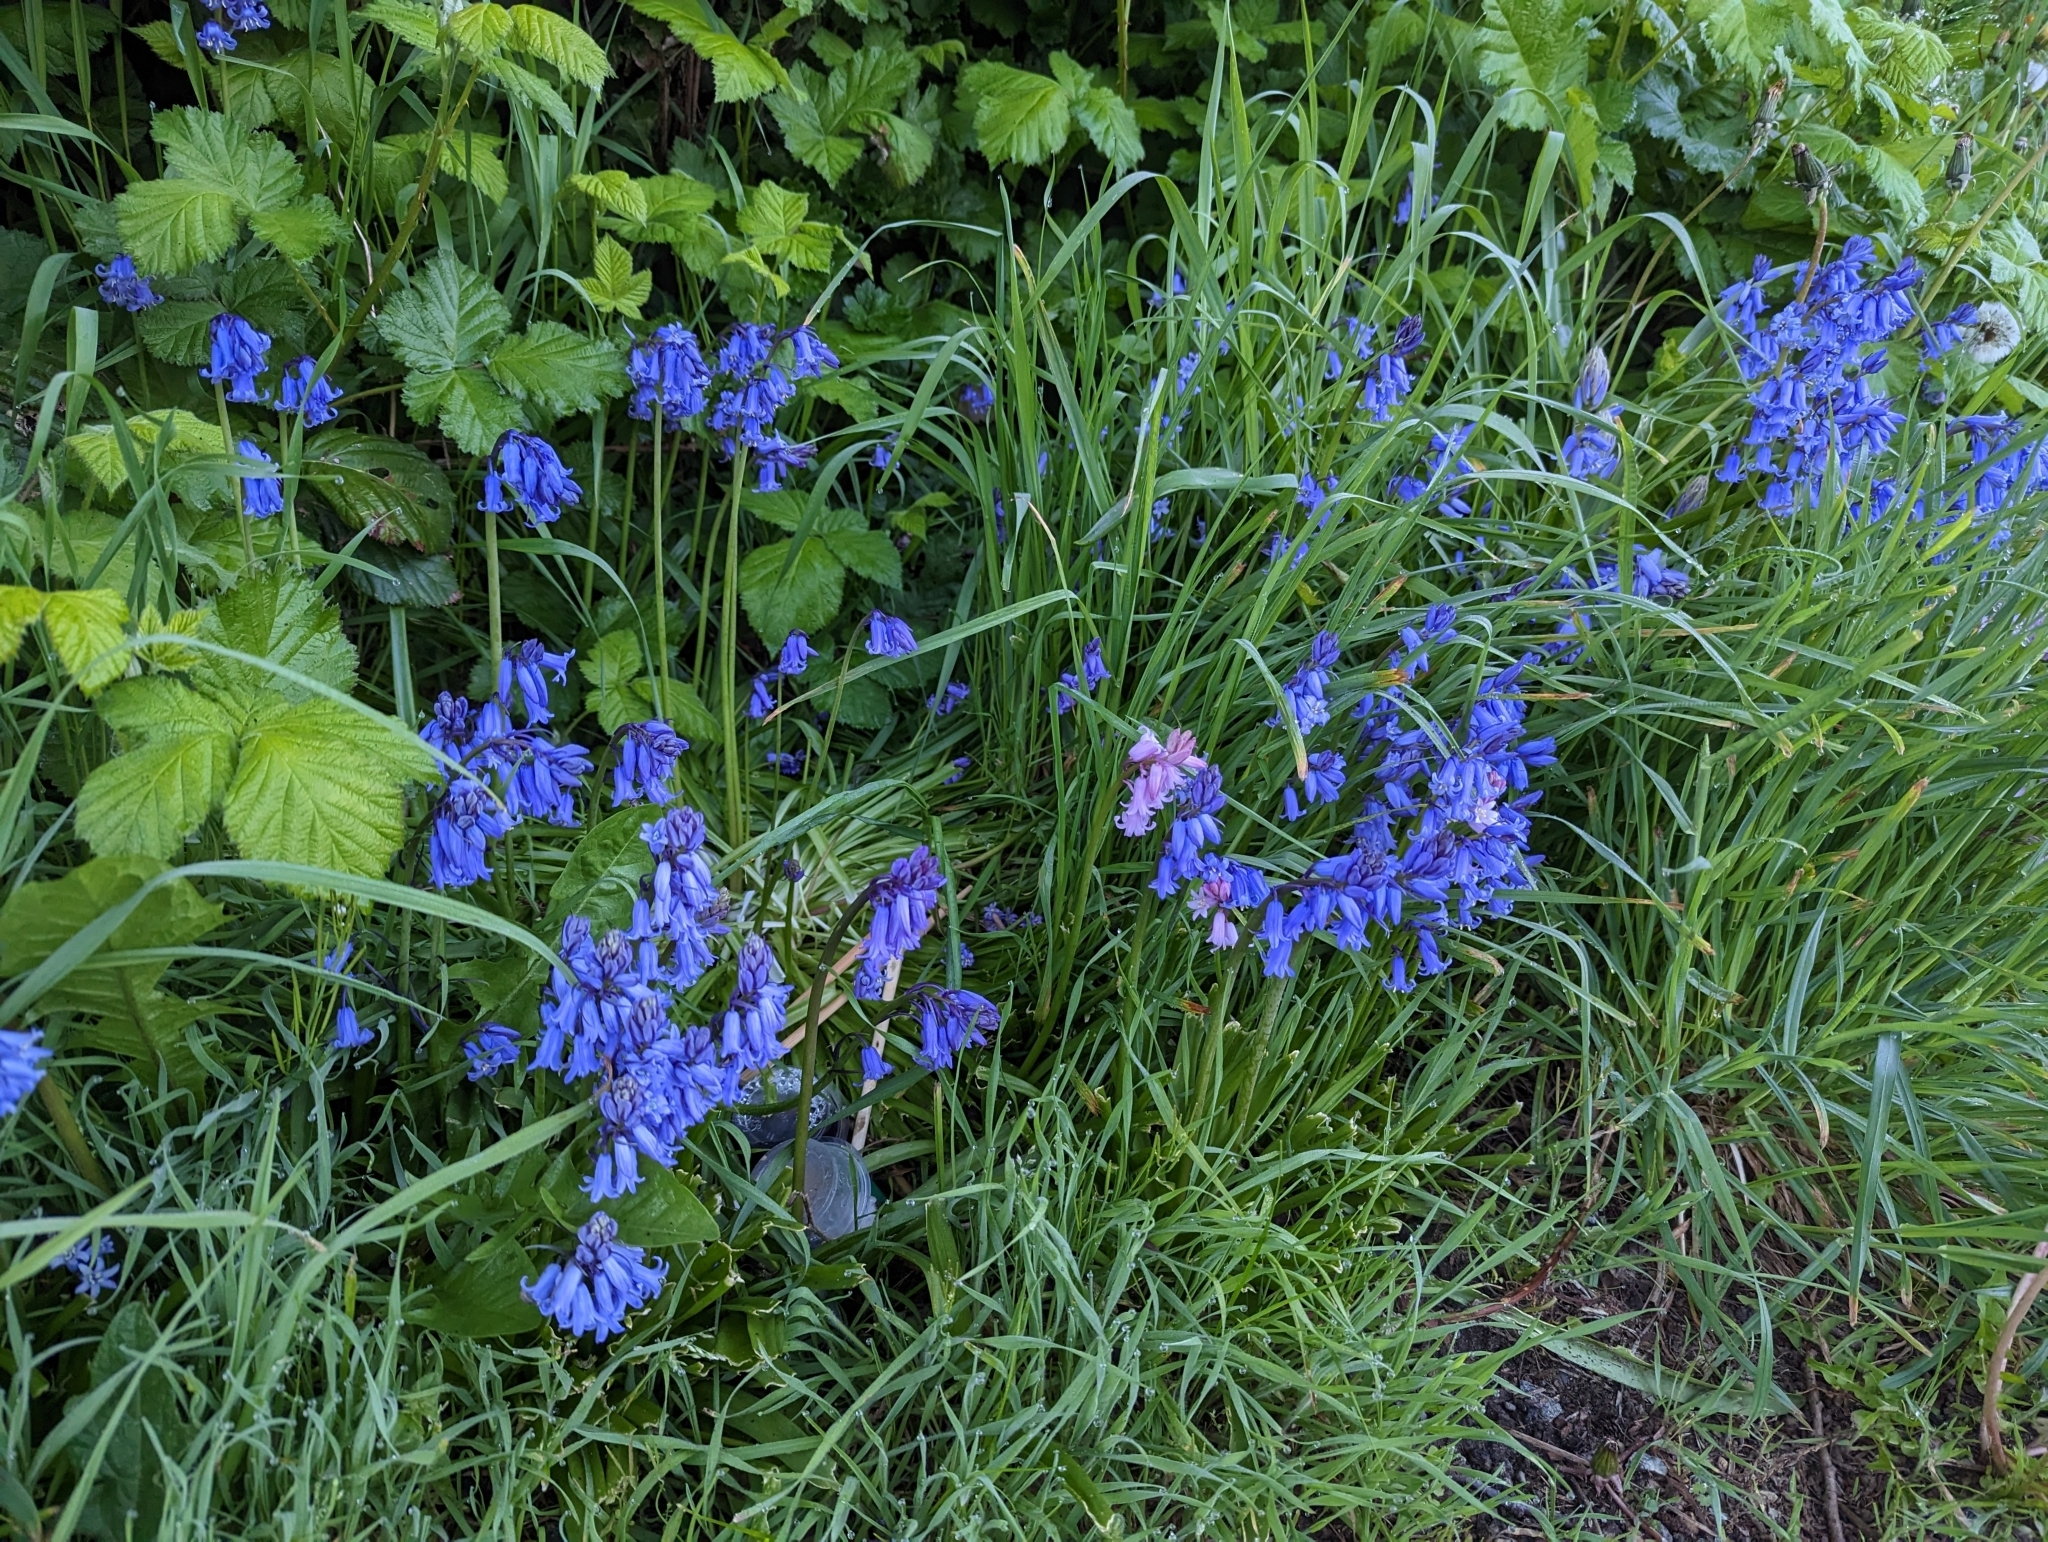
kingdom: Plantae
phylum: Tracheophyta
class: Liliopsida
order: Asparagales
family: Asparagaceae
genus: Hyacinthoides
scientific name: Hyacinthoides non-scripta
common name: Bluebell
